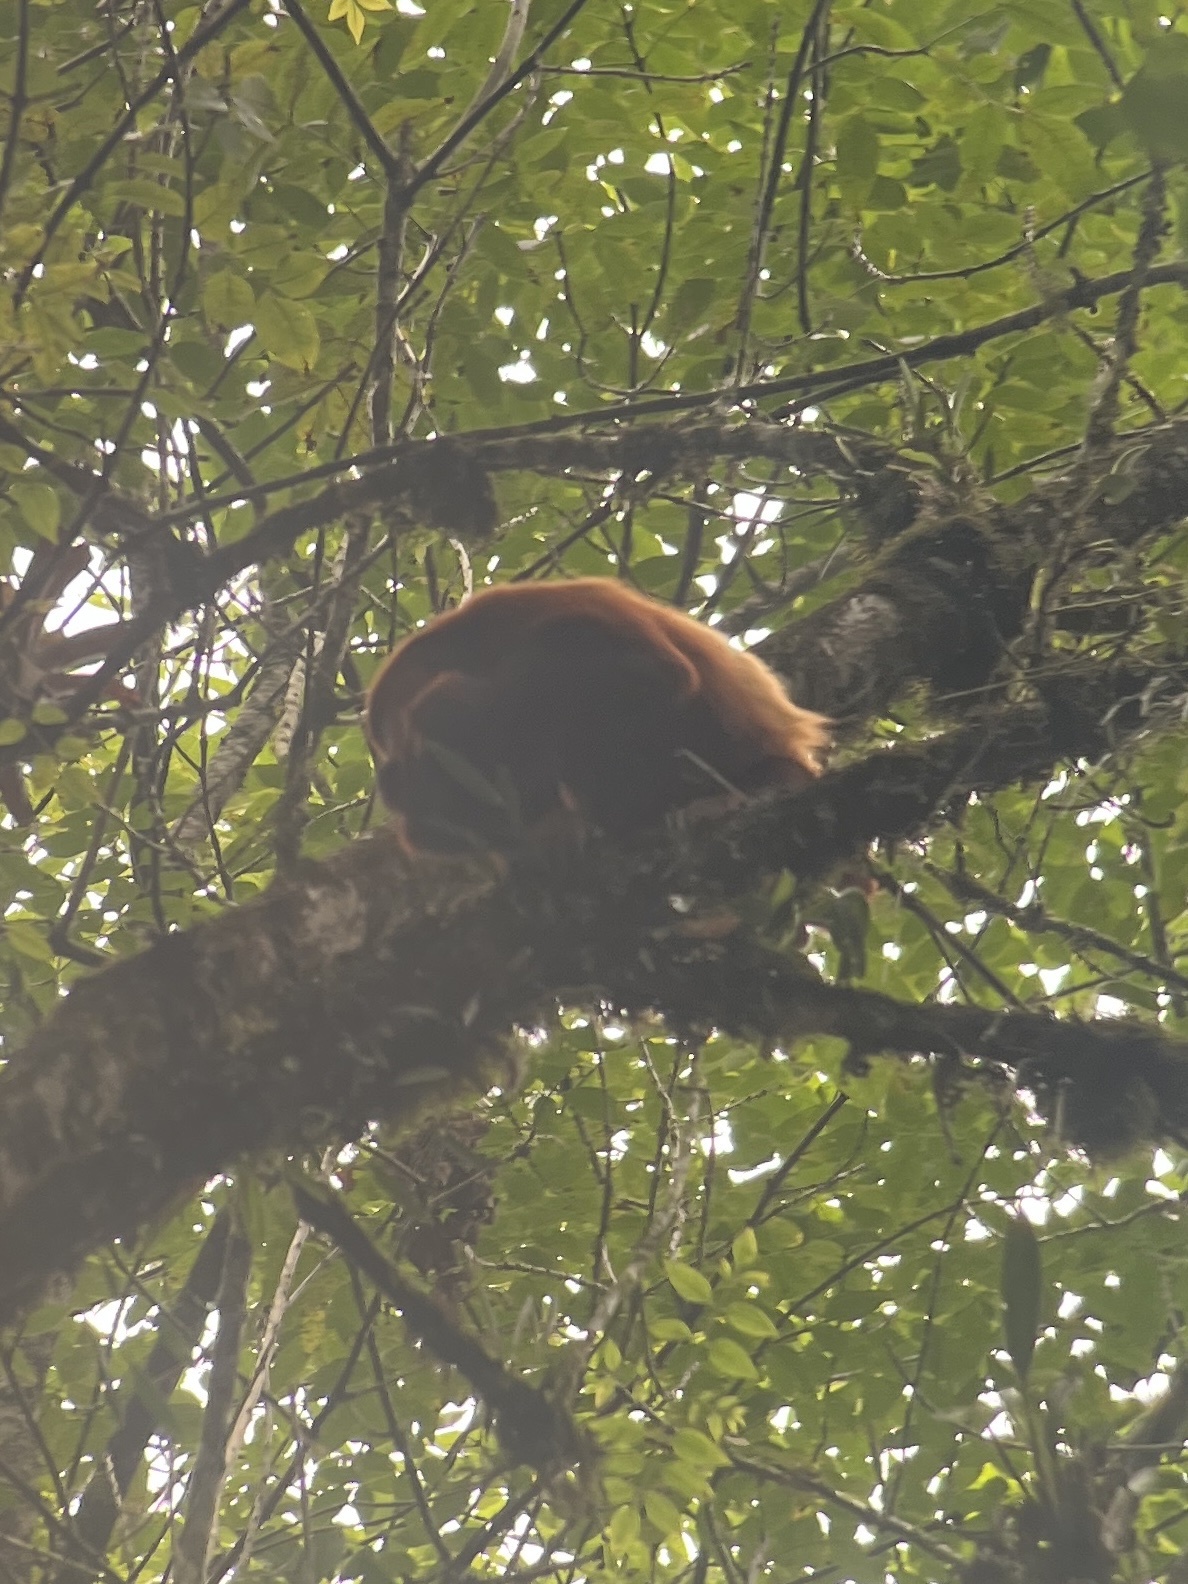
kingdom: Animalia
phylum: Chordata
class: Mammalia
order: Primates
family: Atelidae
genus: Alouatta
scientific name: Alouatta seniculus
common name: Venezuelan red howler
